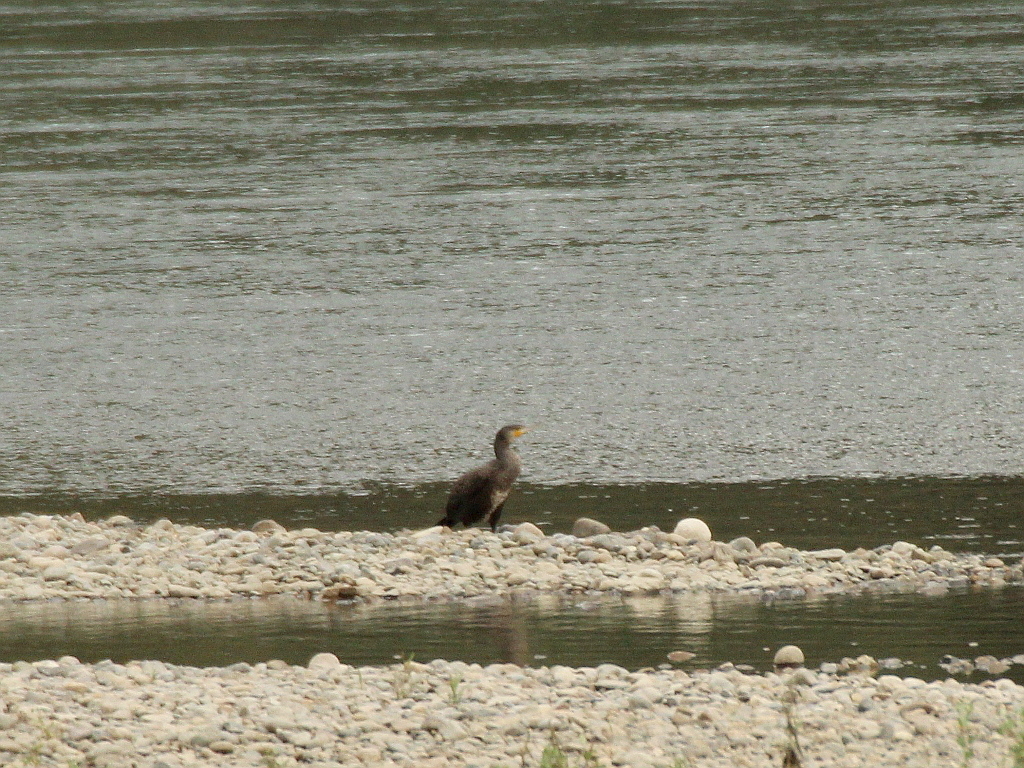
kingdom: Animalia
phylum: Chordata
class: Aves
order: Suliformes
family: Phalacrocoracidae
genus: Phalacrocorax
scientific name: Phalacrocorax carbo
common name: Great cormorant
